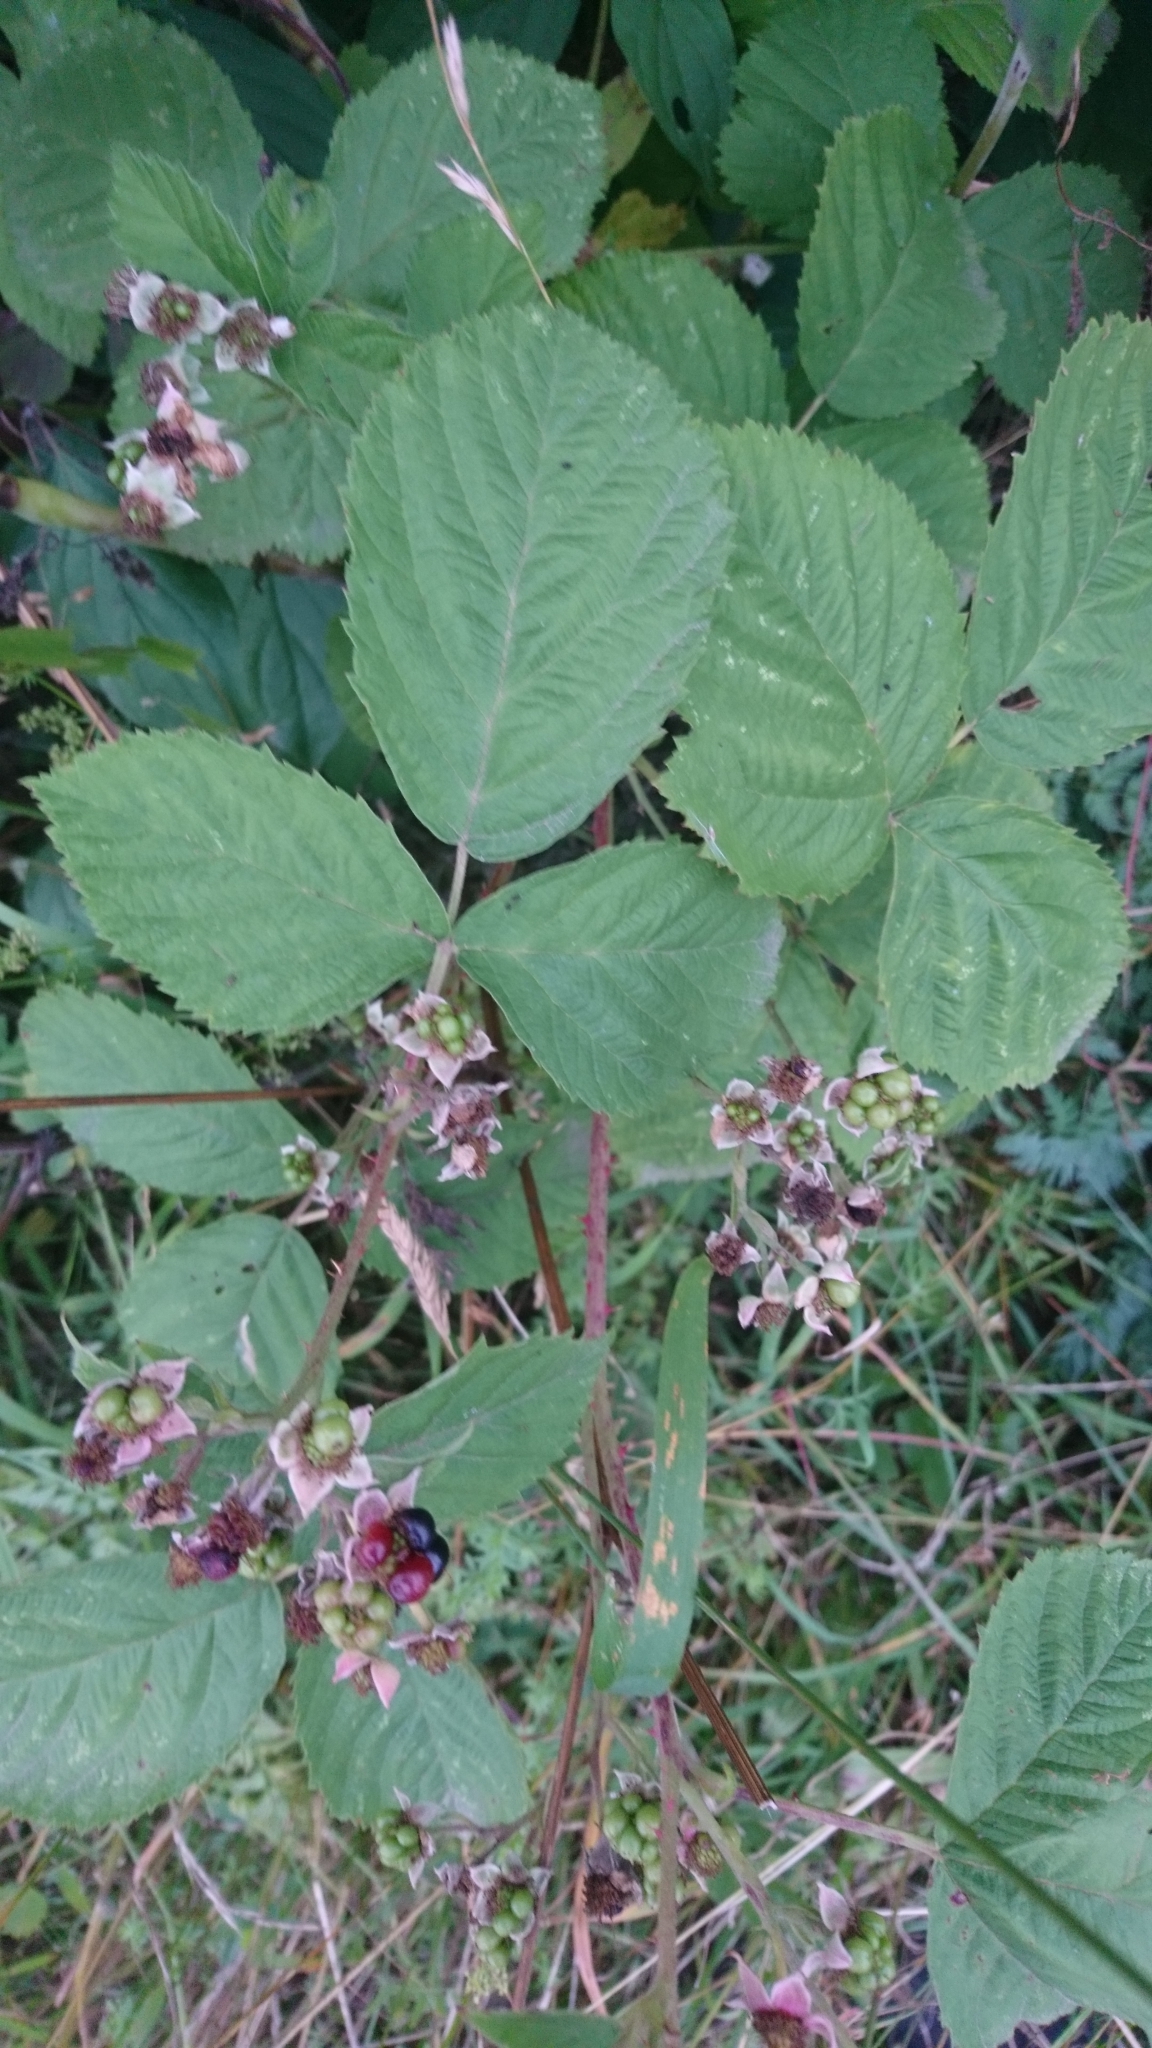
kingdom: Plantae
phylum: Tracheophyta
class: Magnoliopsida
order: Rosales
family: Rosaceae
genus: Rubus
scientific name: Rubus caesius
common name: Dewberry
